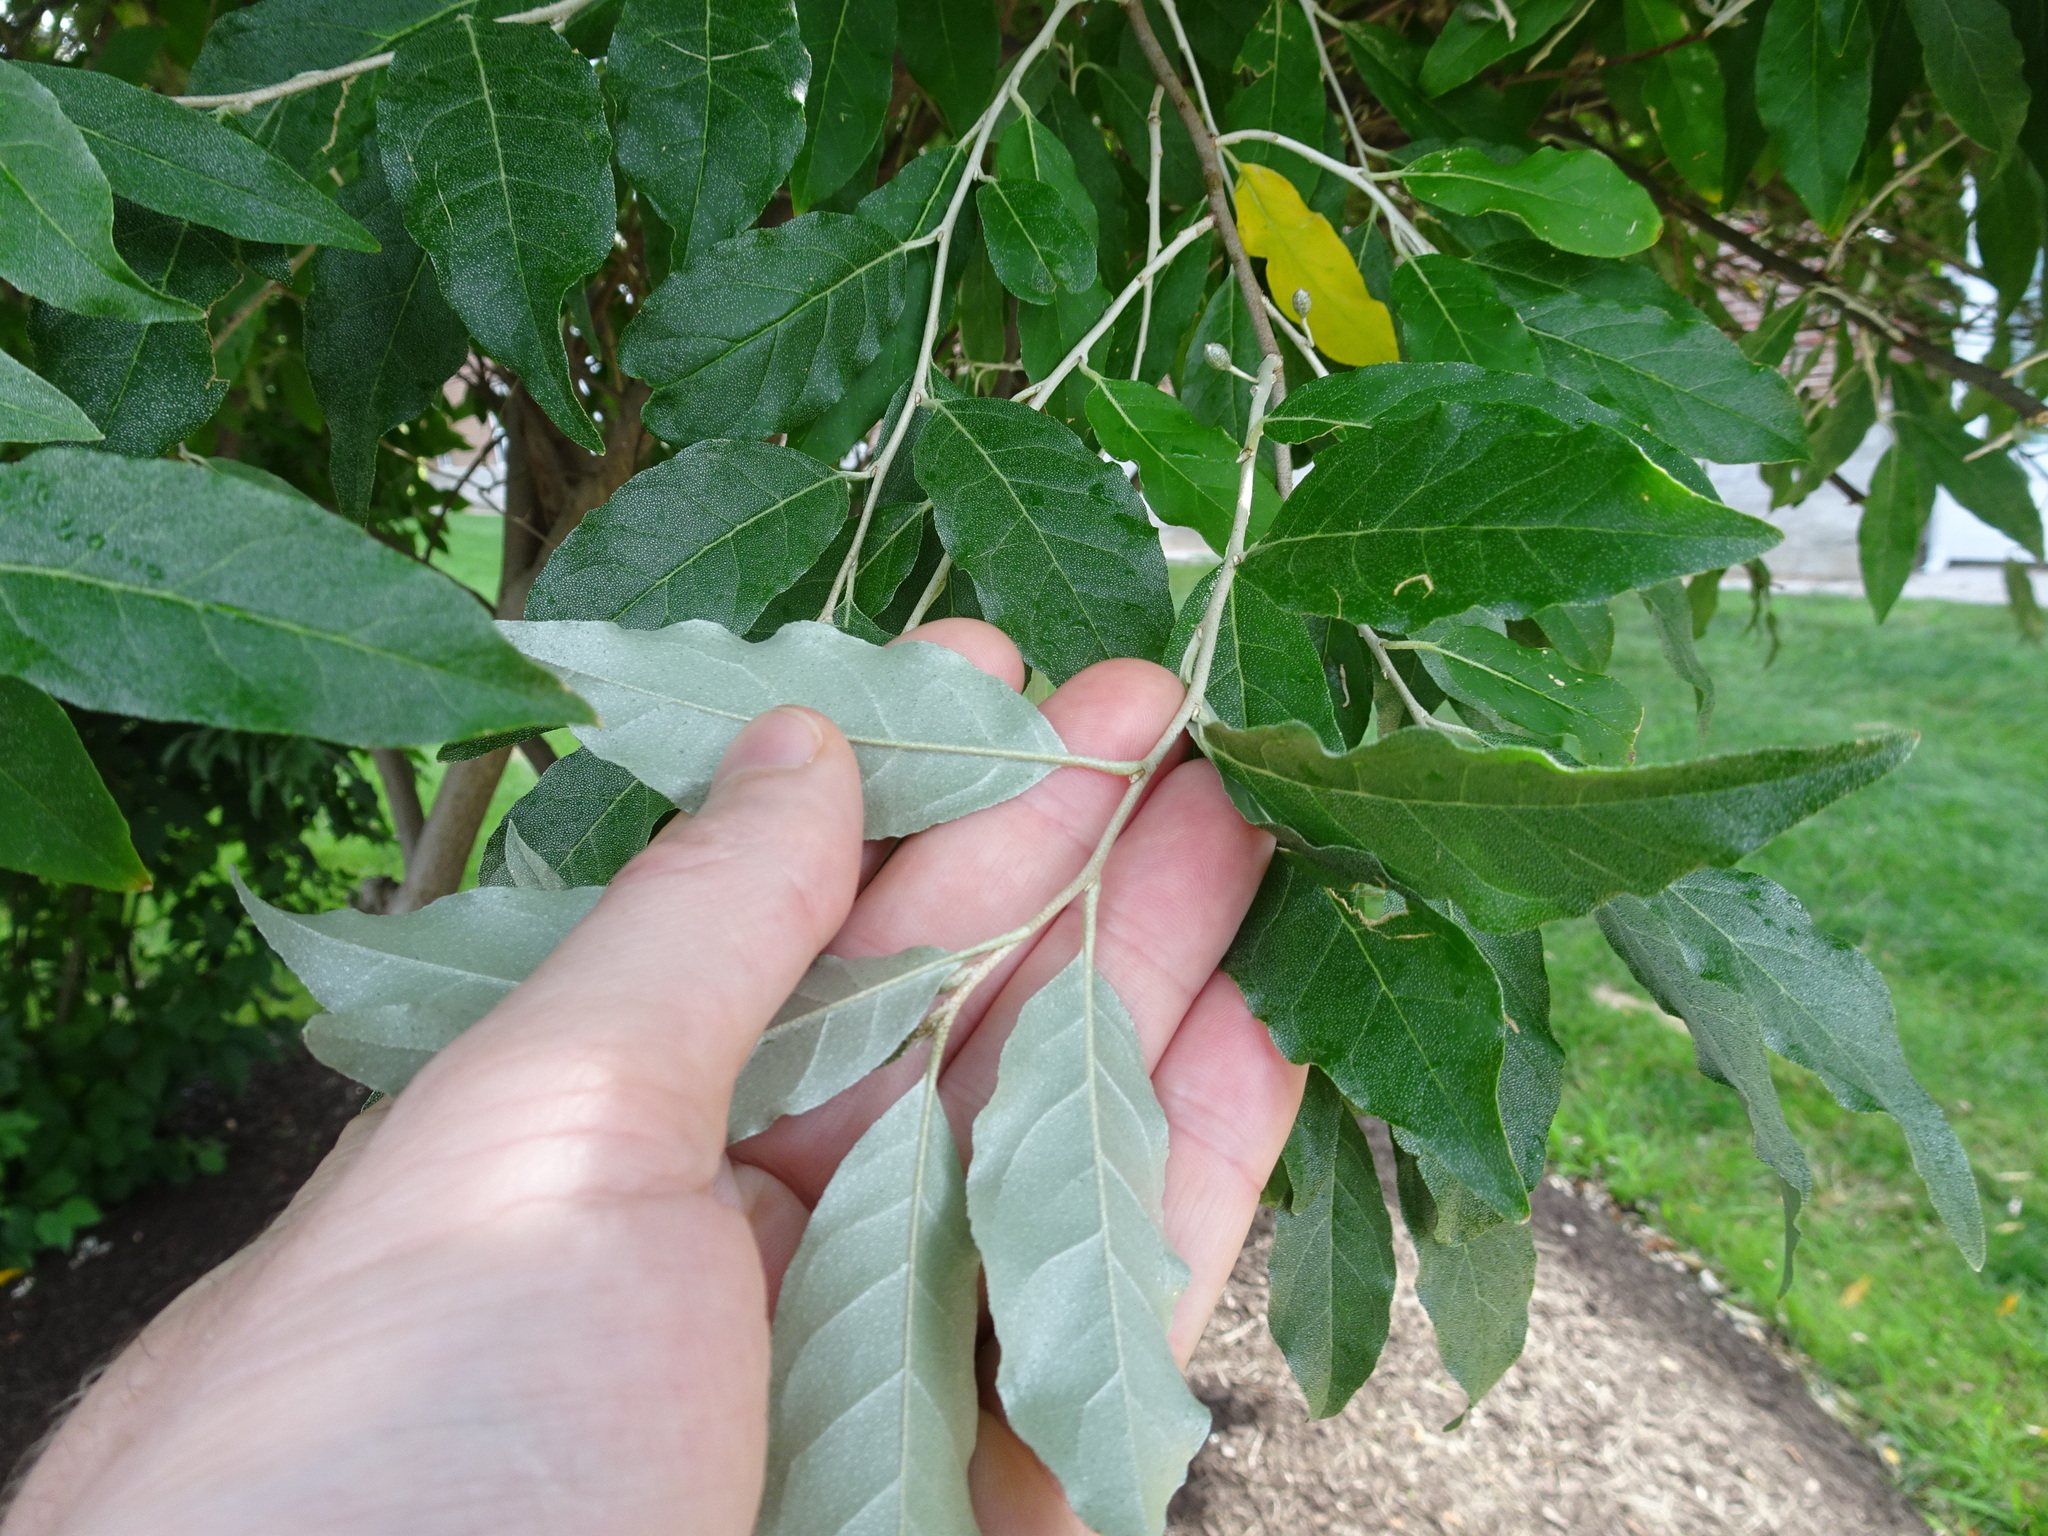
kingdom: Plantae
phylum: Tracheophyta
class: Magnoliopsida
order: Rosales
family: Elaeagnaceae
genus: Elaeagnus
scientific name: Elaeagnus umbellata
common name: Autumn olive
